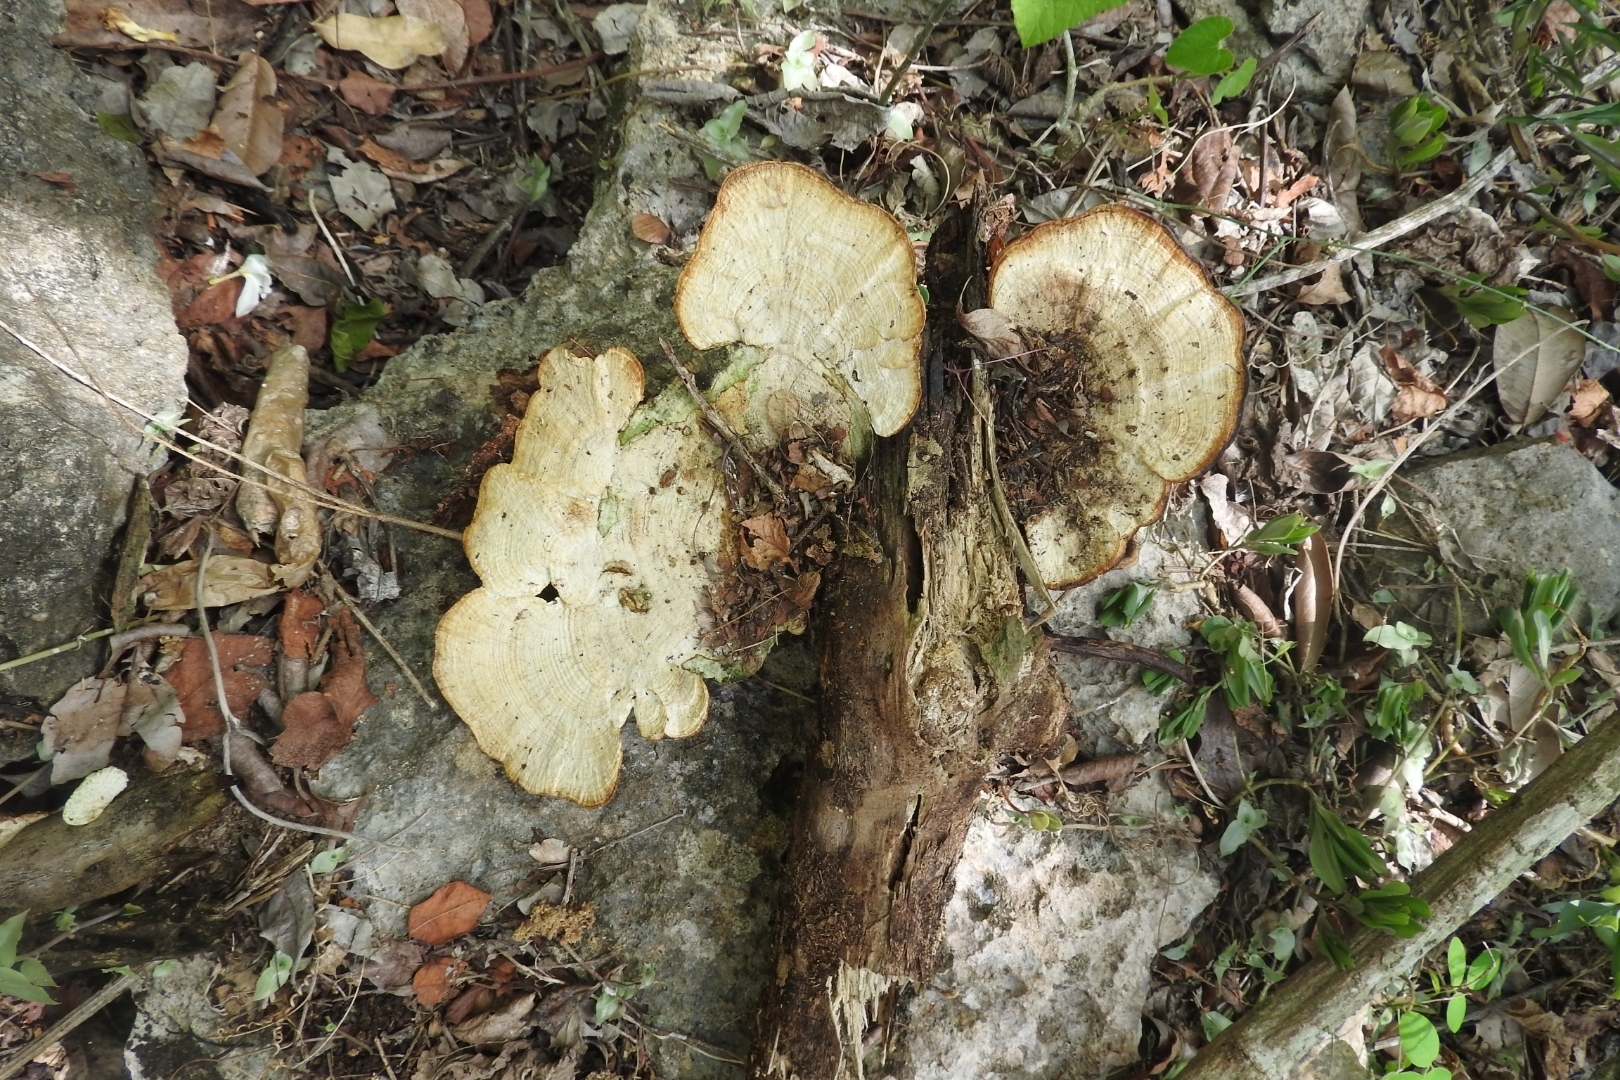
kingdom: Fungi
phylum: Basidiomycota
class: Agaricomycetes
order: Polyporales
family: Polyporaceae
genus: Daedaleopsis
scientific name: Daedaleopsis confragosa
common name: Blushing bracket
